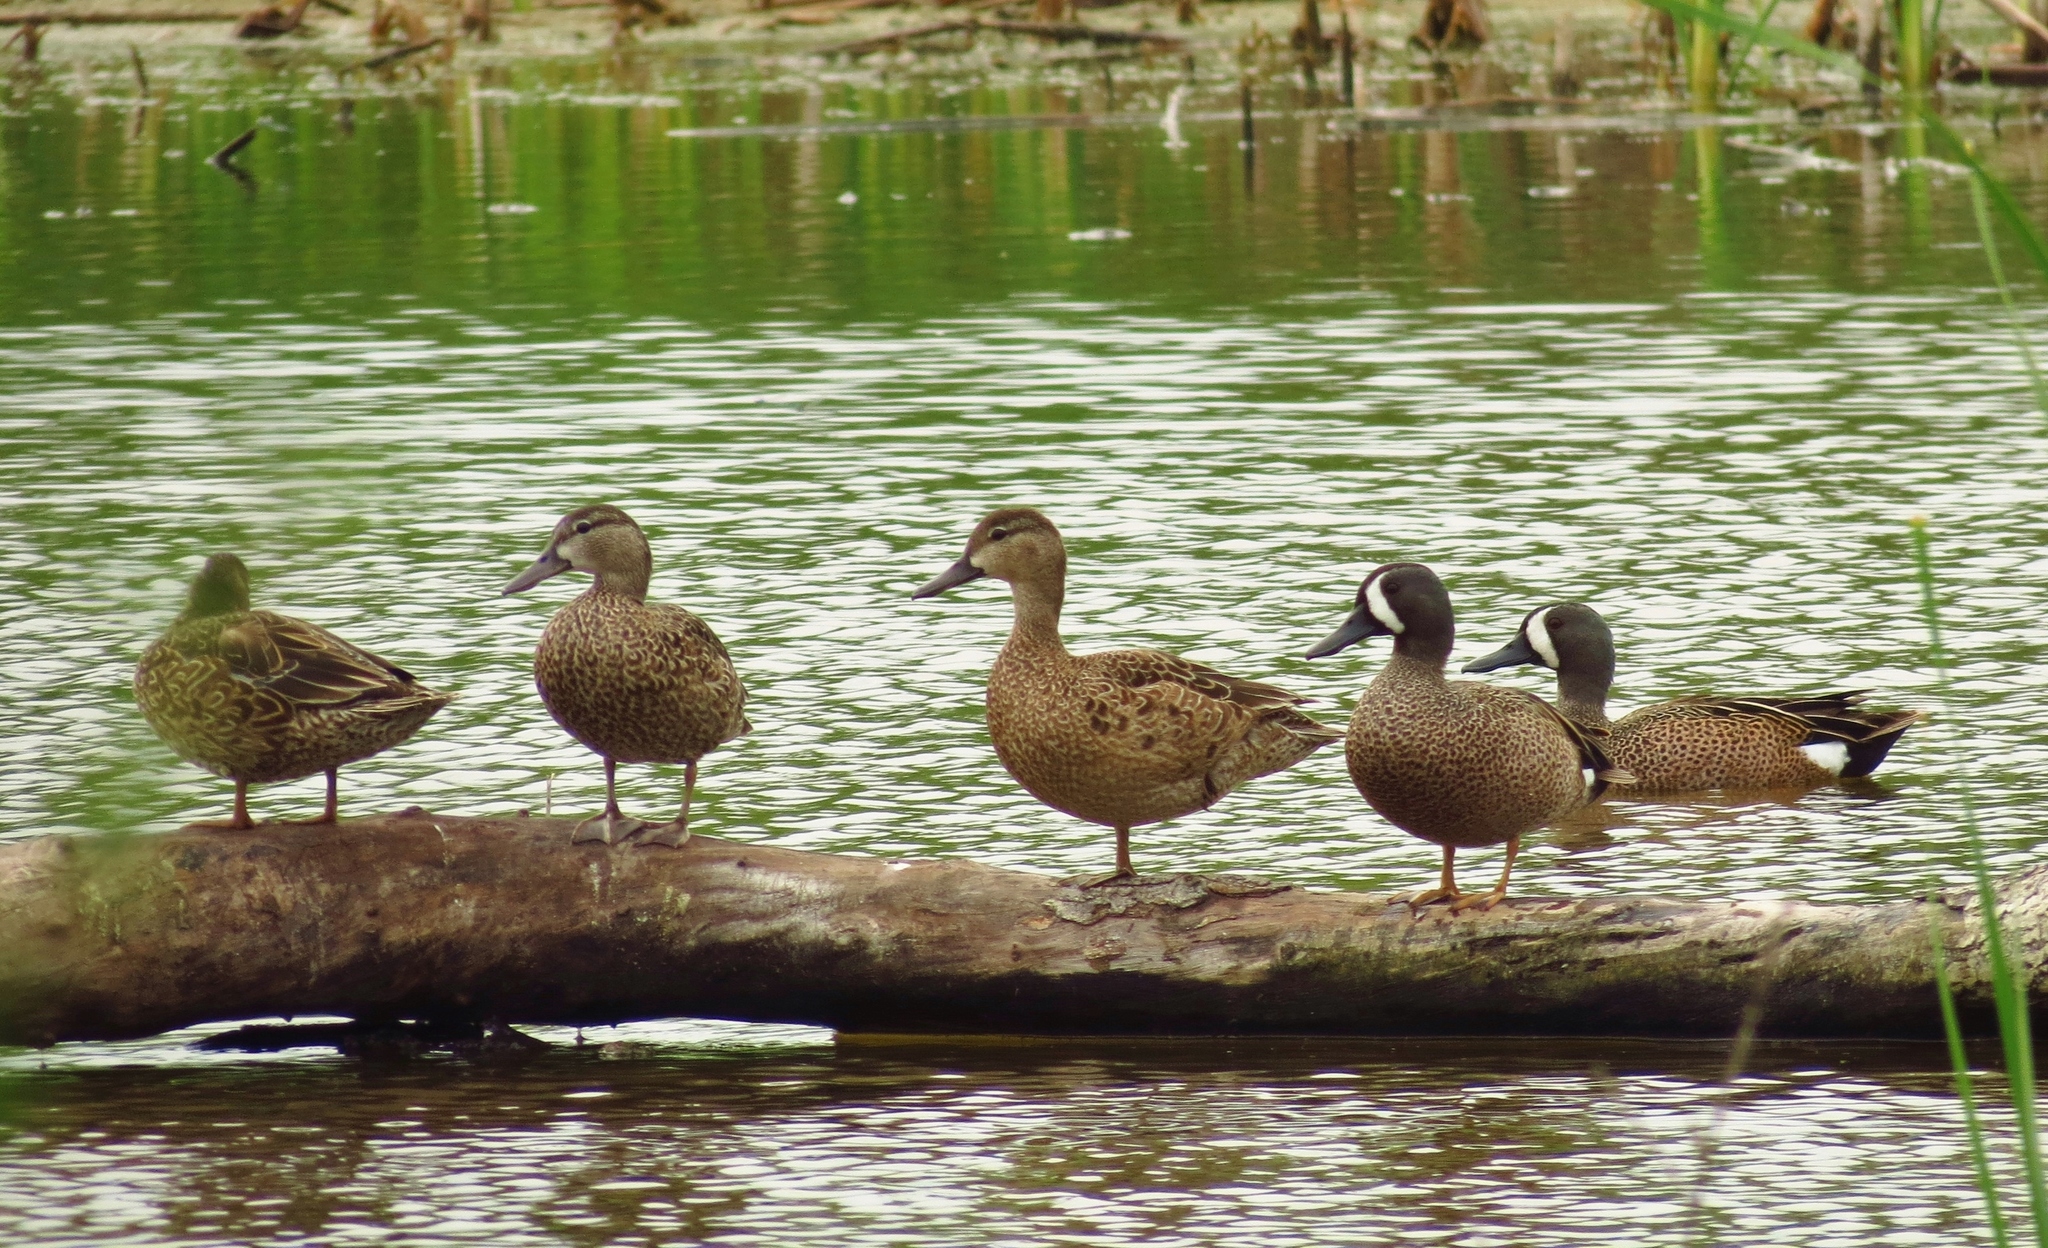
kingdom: Animalia
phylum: Chordata
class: Aves
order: Anseriformes
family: Anatidae
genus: Spatula
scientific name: Spatula discors
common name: Blue-winged teal
